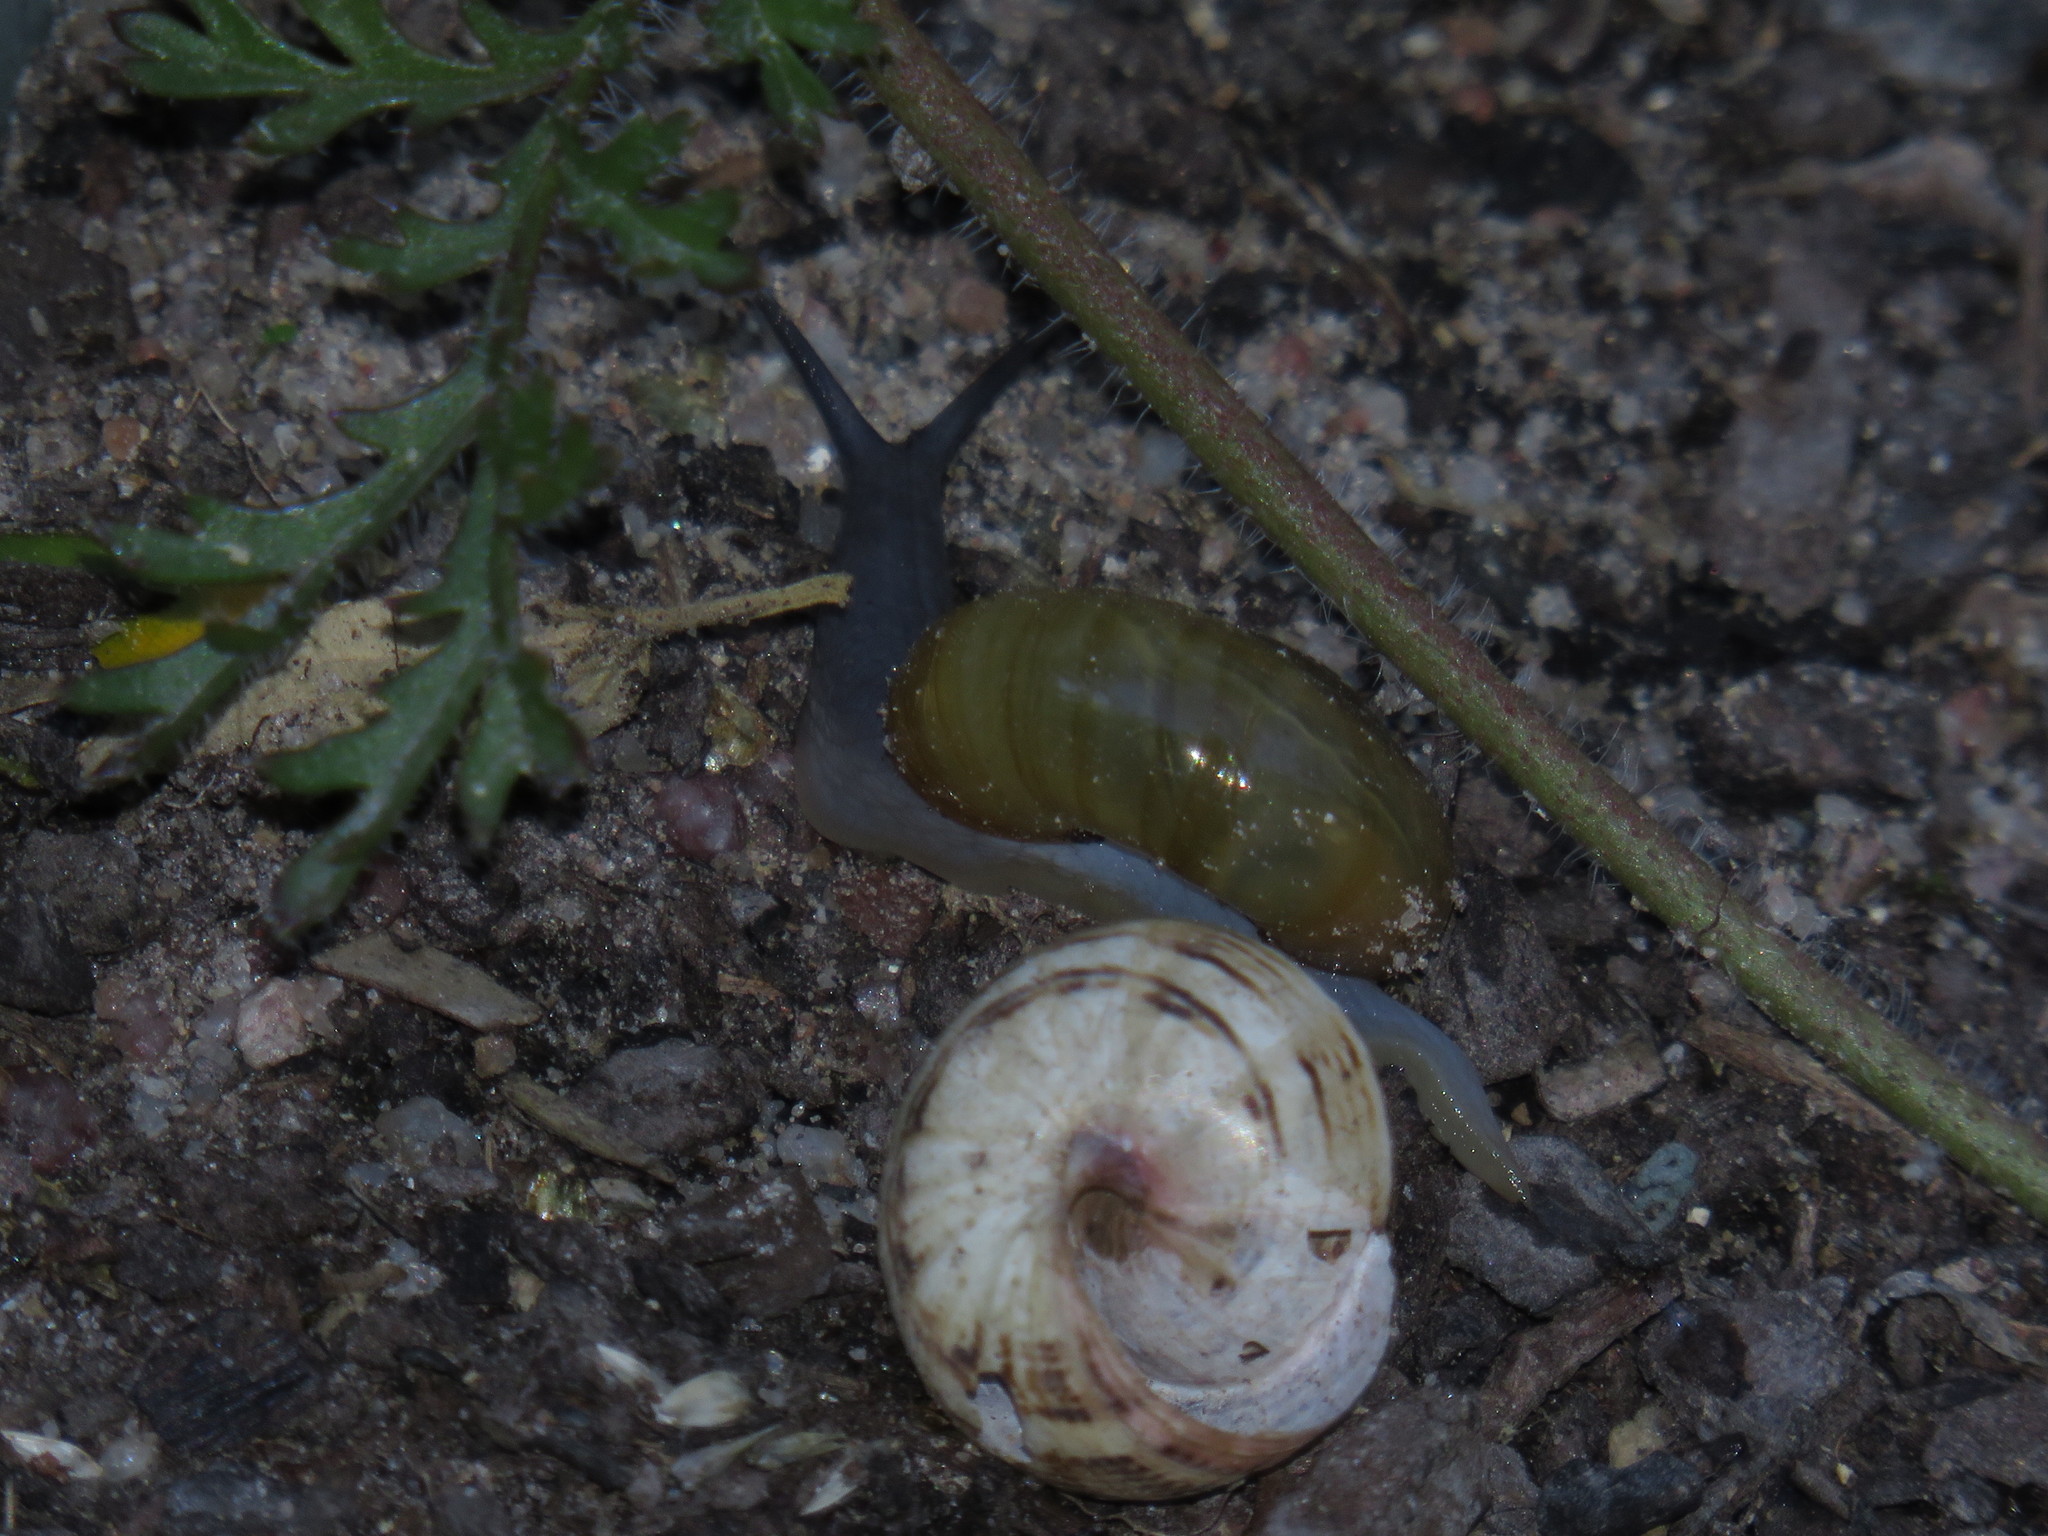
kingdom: Animalia
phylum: Mollusca
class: Gastropoda
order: Stylommatophora
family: Helicidae
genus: Theba
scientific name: Theba pisana
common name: White snail
